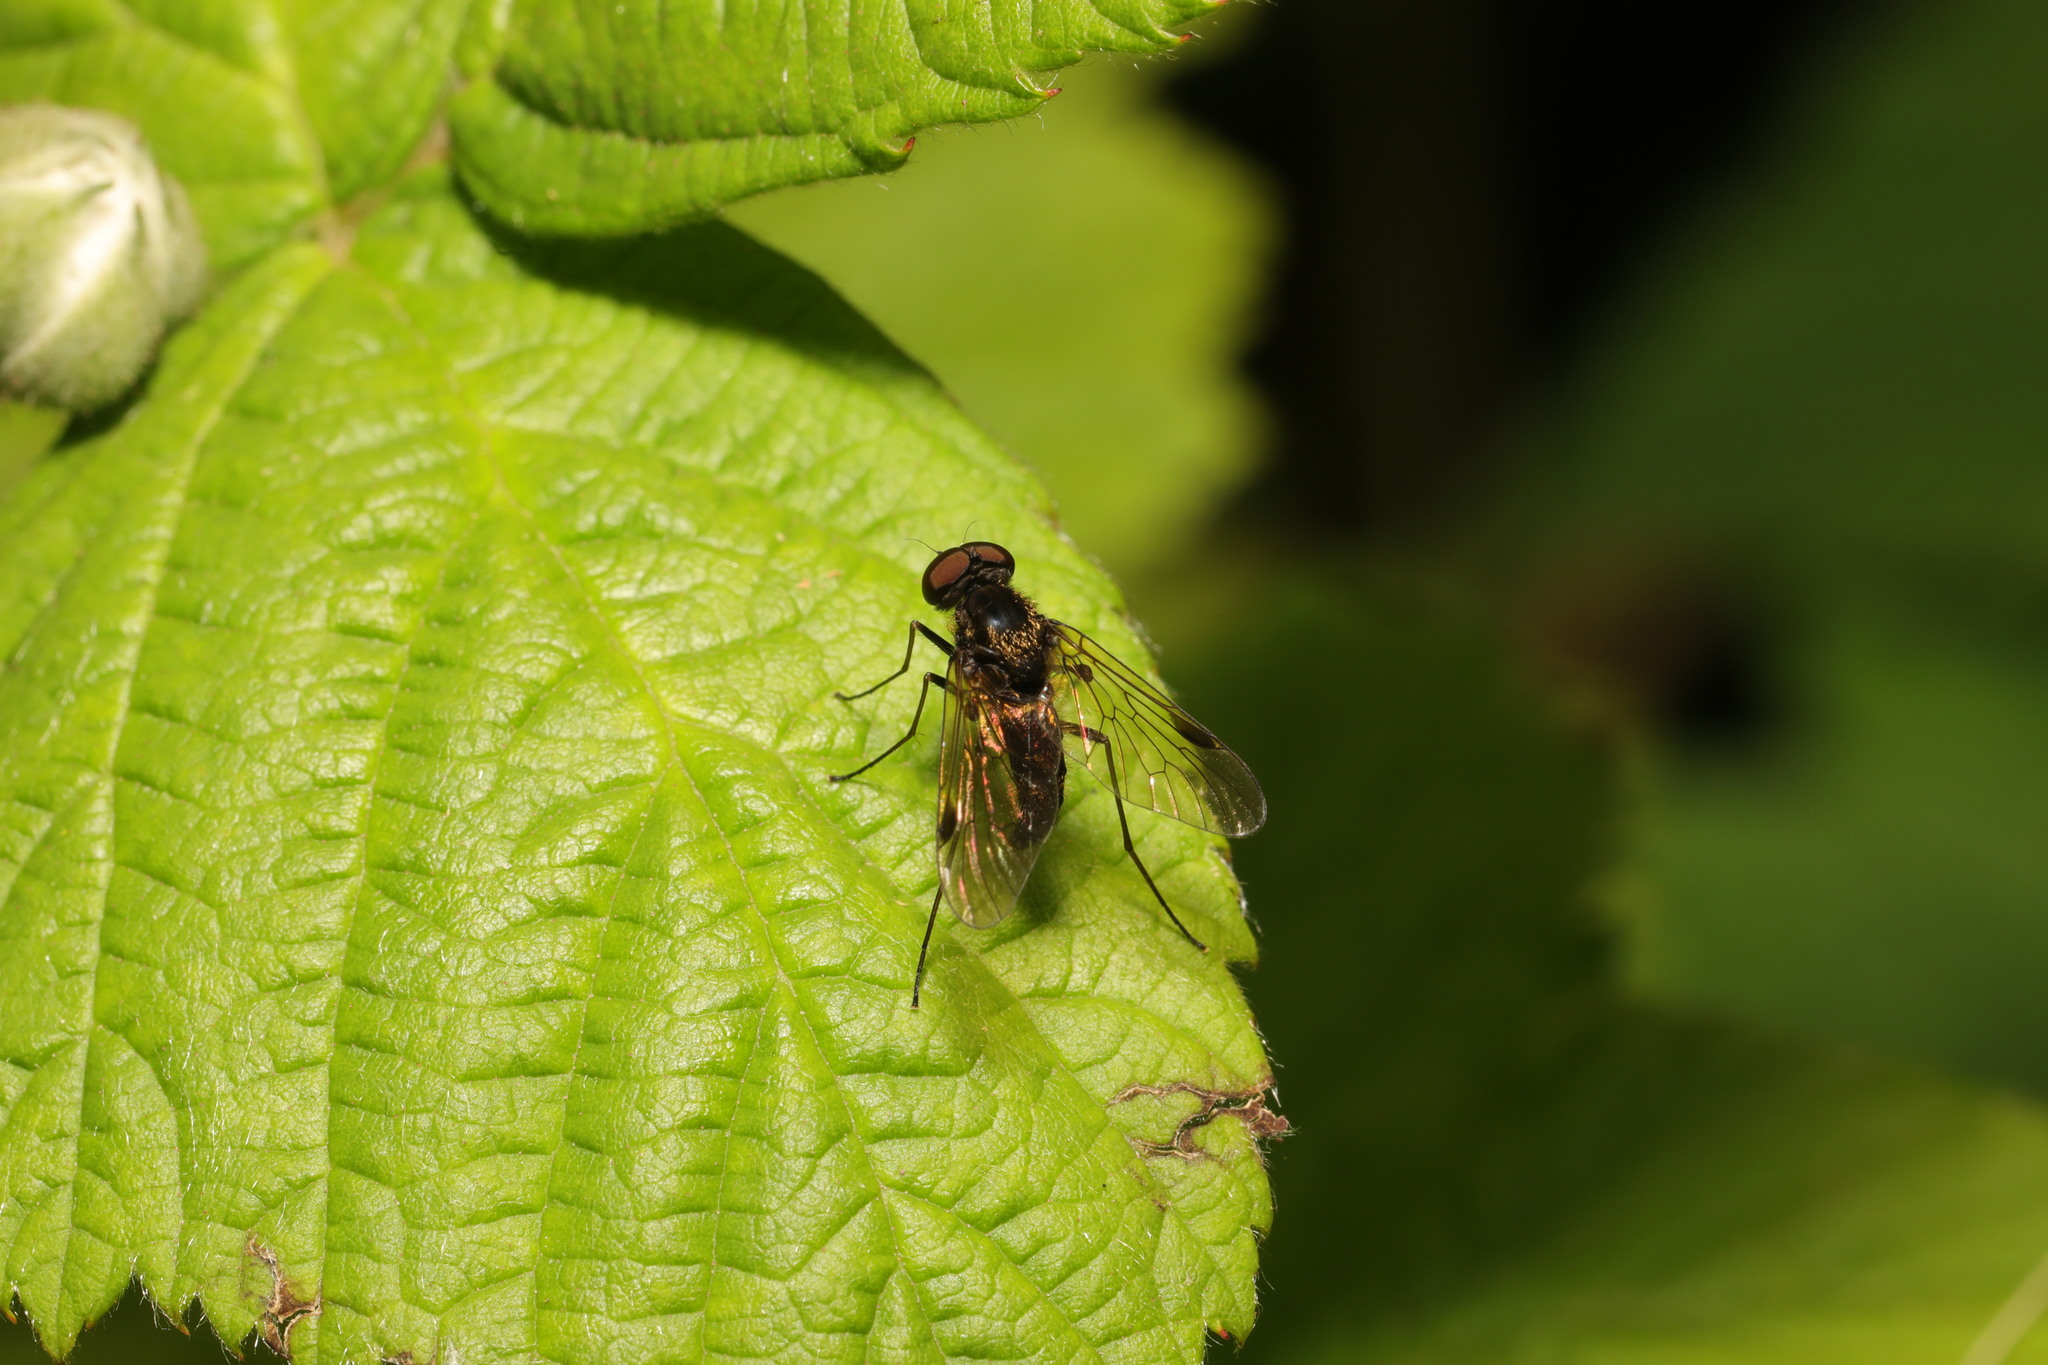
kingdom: Animalia
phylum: Arthropoda
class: Insecta
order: Diptera
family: Rhagionidae
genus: Chrysopilus
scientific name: Chrysopilus cristatus
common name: Black snipefly
